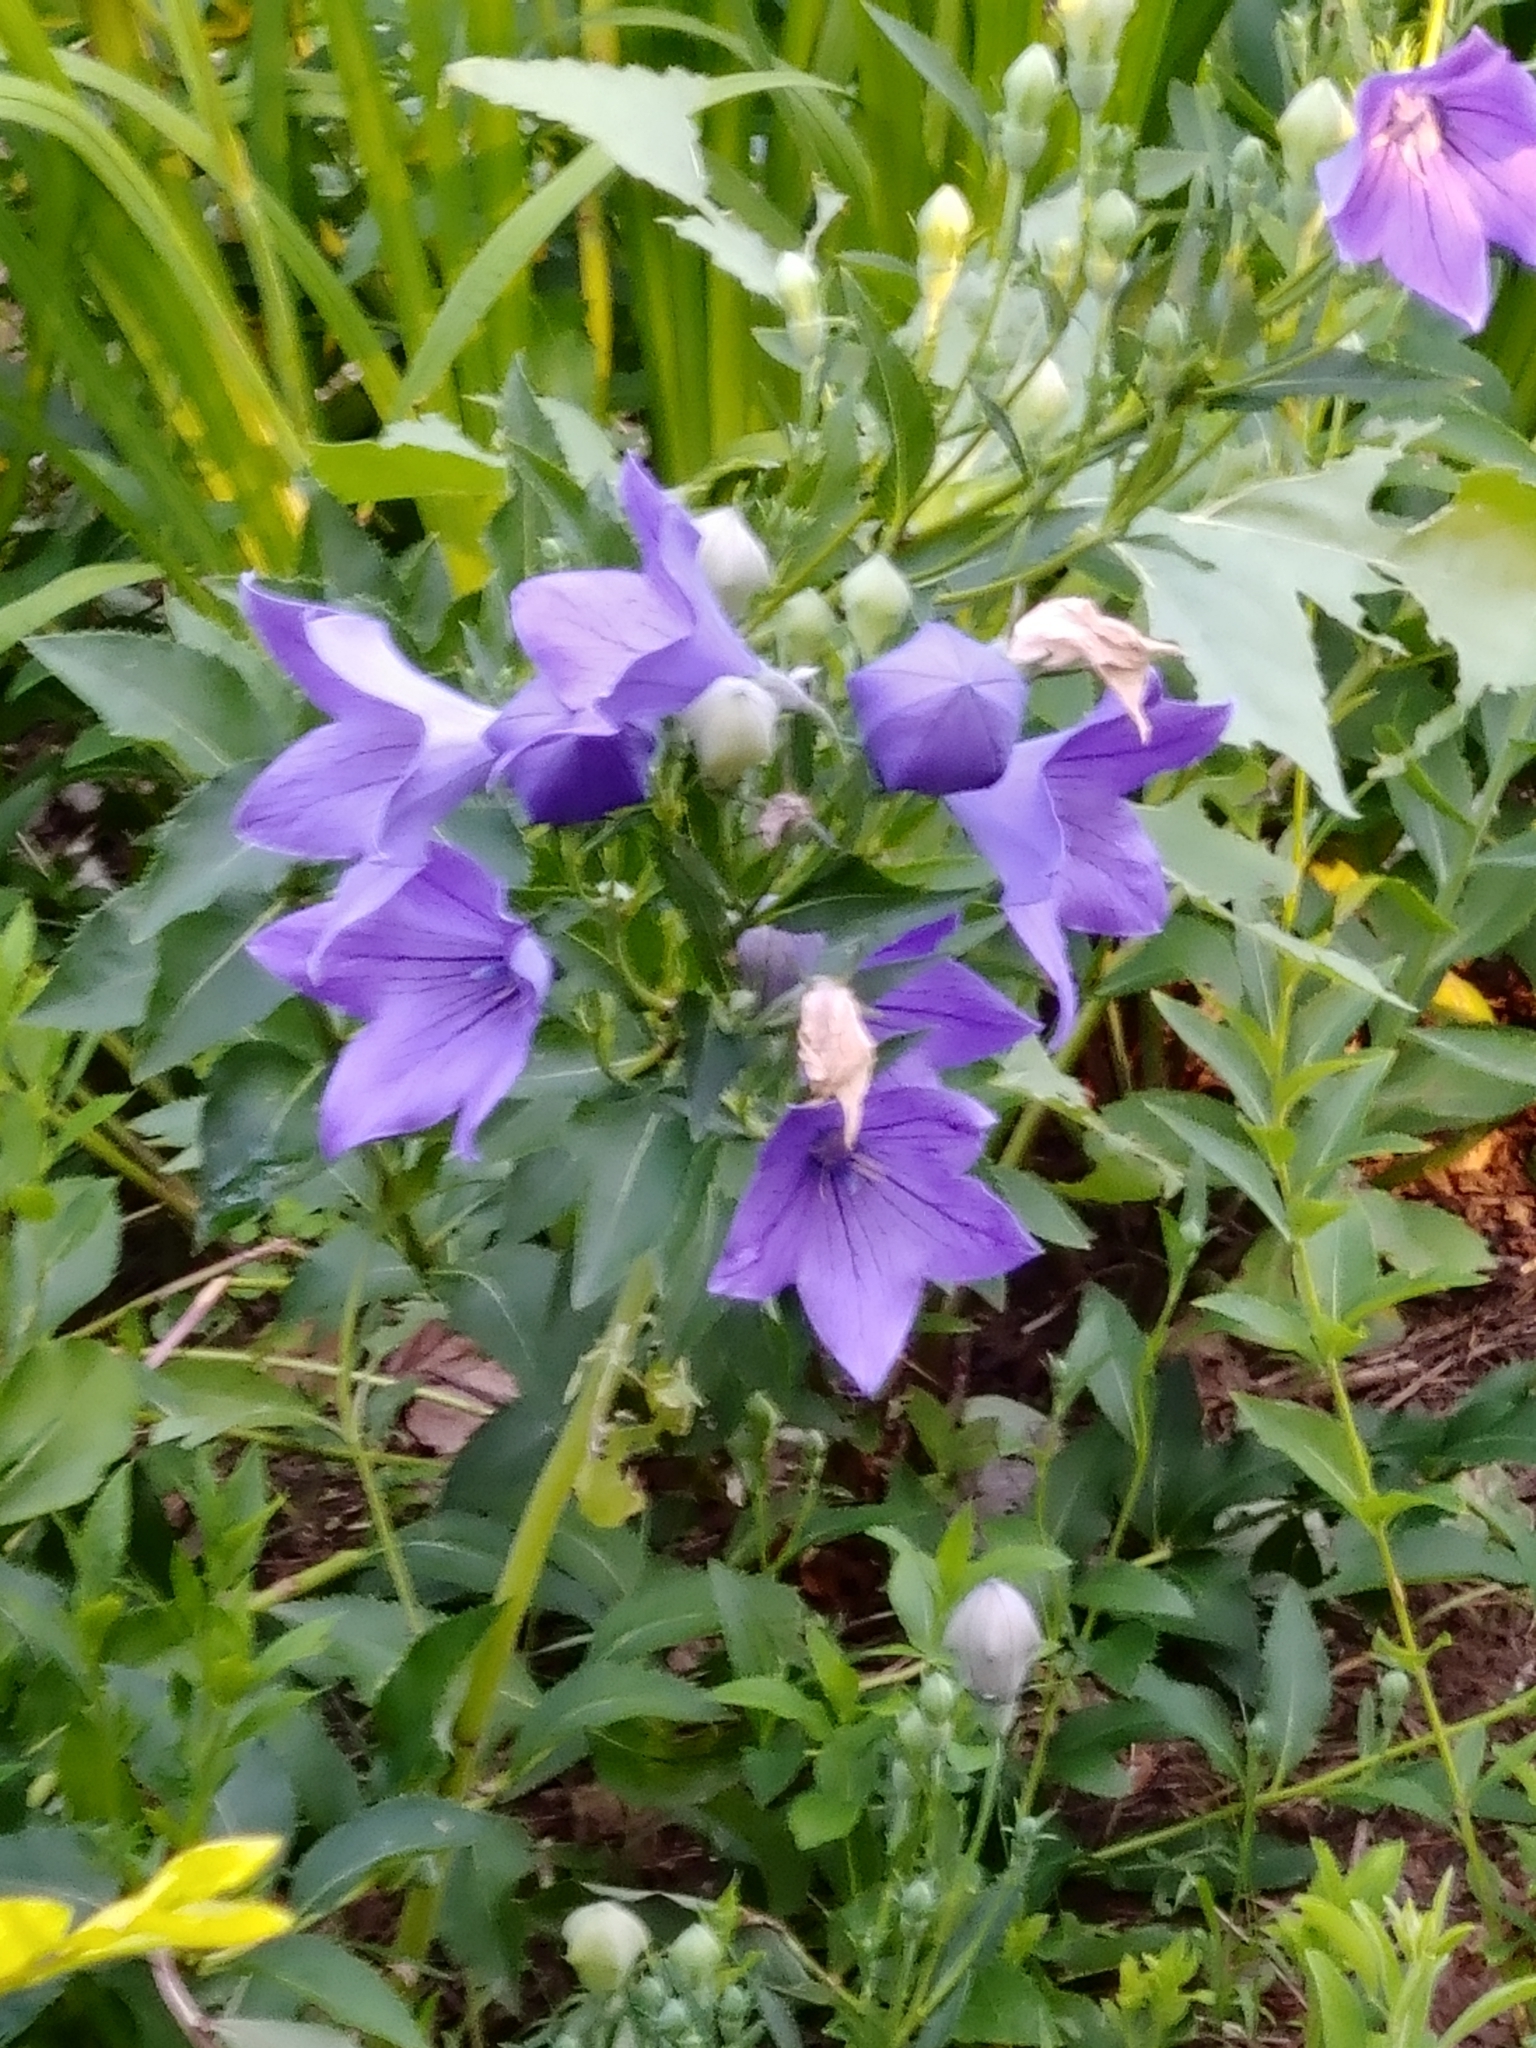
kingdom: Plantae
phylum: Tracheophyta
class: Magnoliopsida
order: Asterales
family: Campanulaceae
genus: Platycodon
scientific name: Platycodon grandiflorus
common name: Balloon-flower
